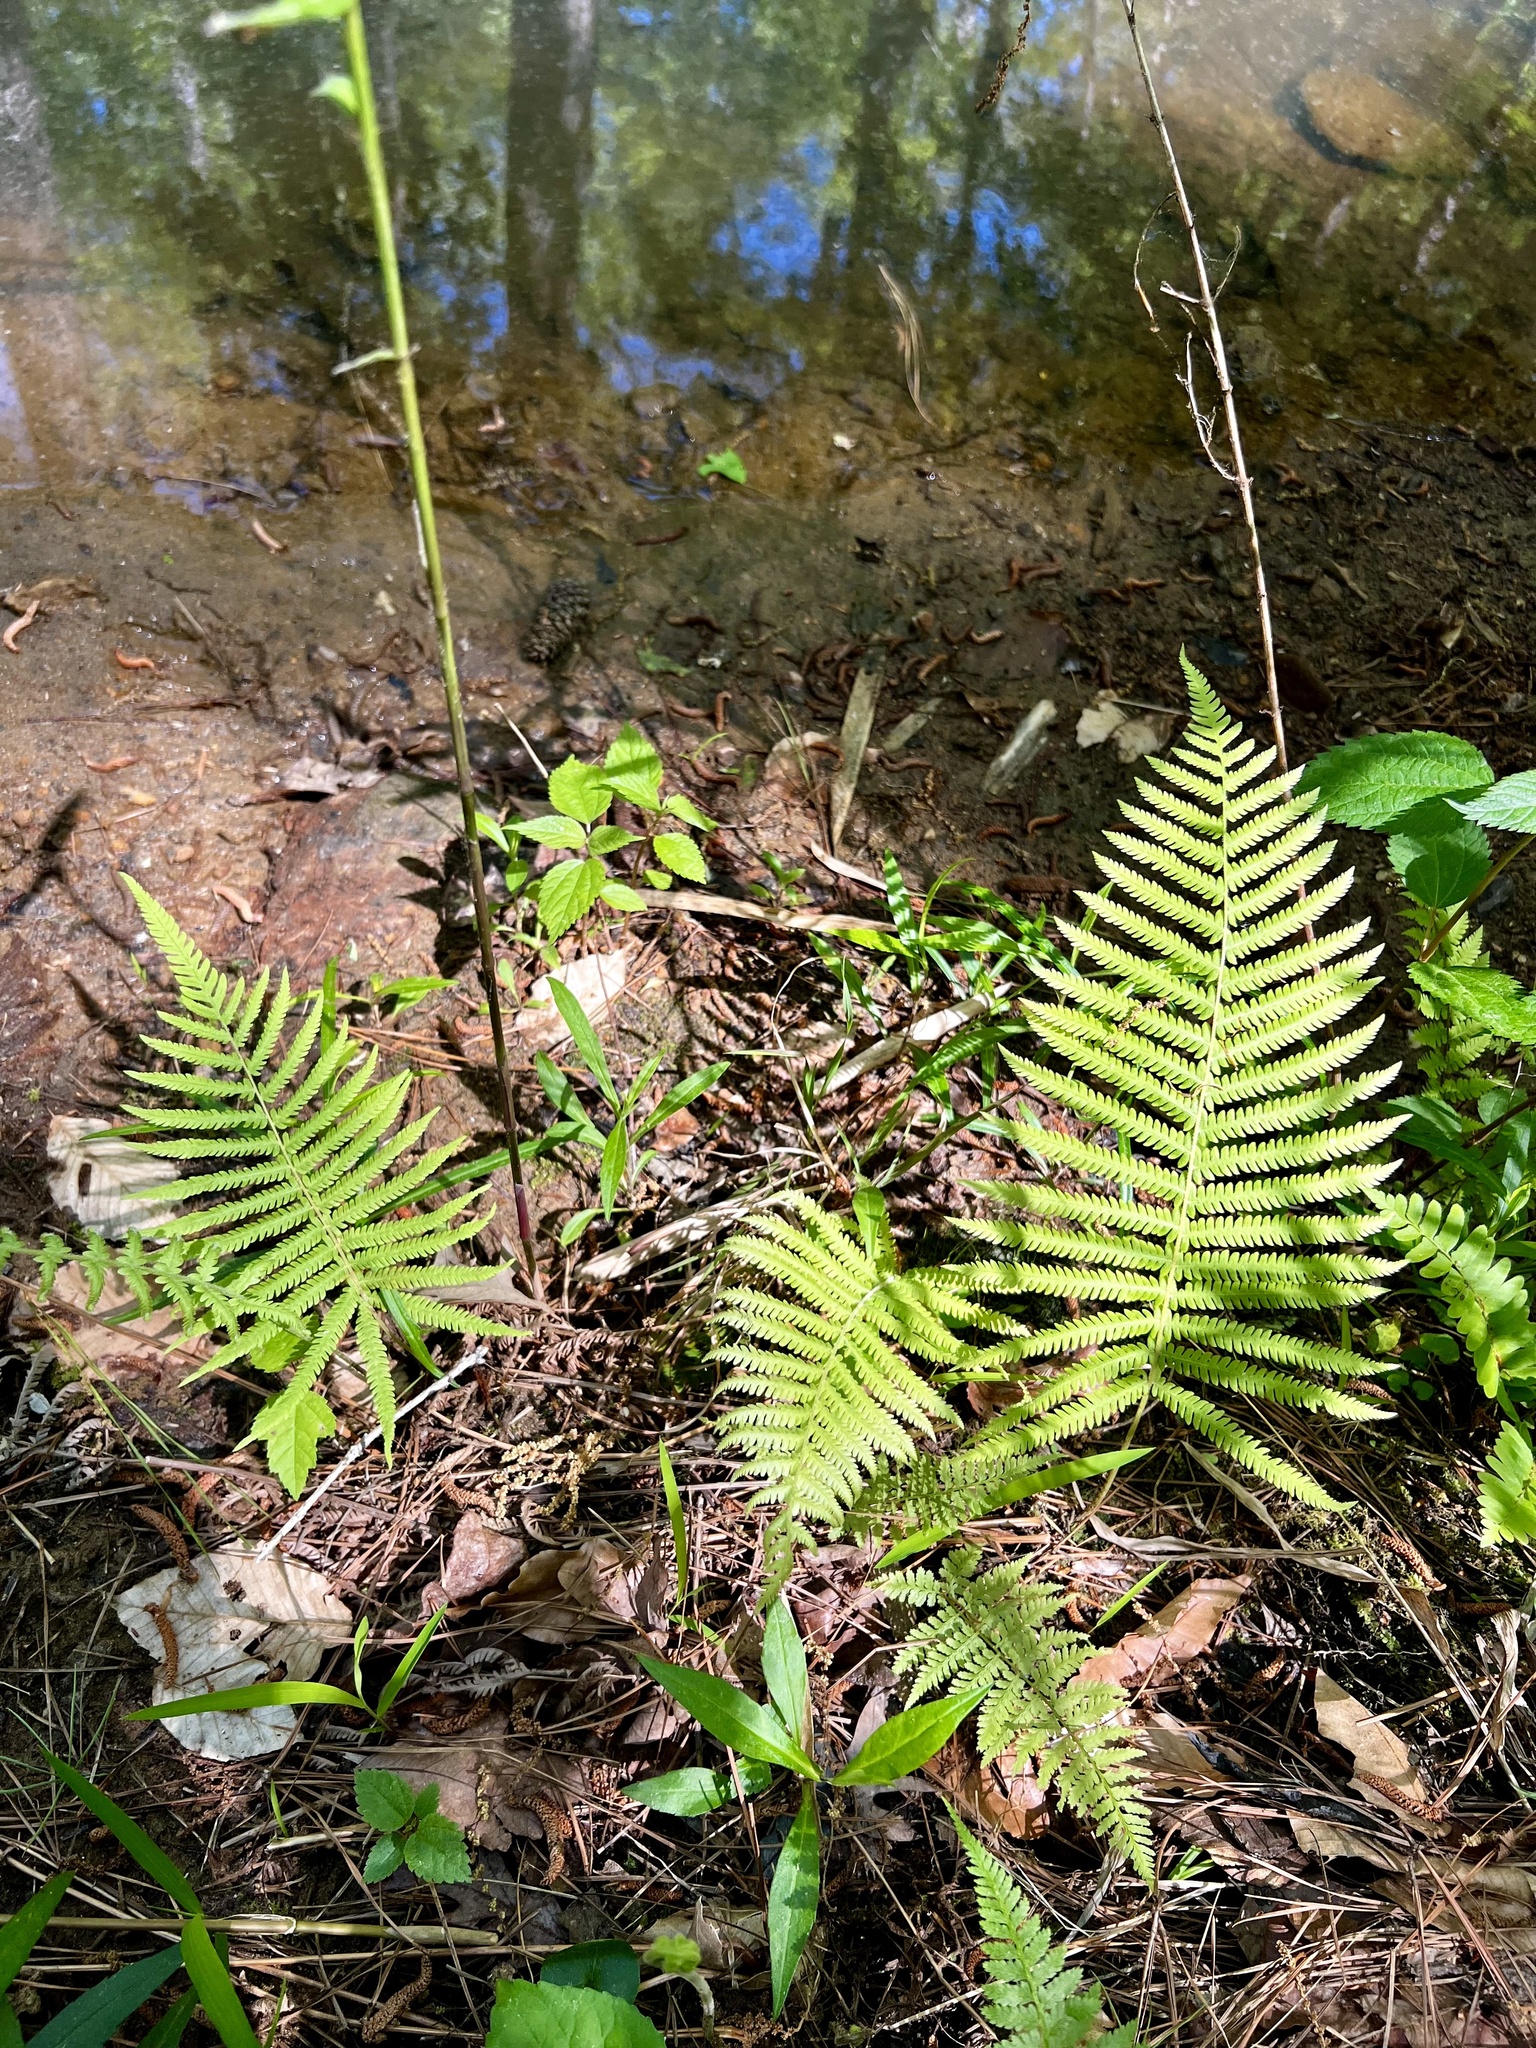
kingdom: Plantae
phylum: Tracheophyta
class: Polypodiopsida
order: Polypodiales
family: Thelypteridaceae
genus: Pelazoneuron
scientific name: Pelazoneuron kunthii
